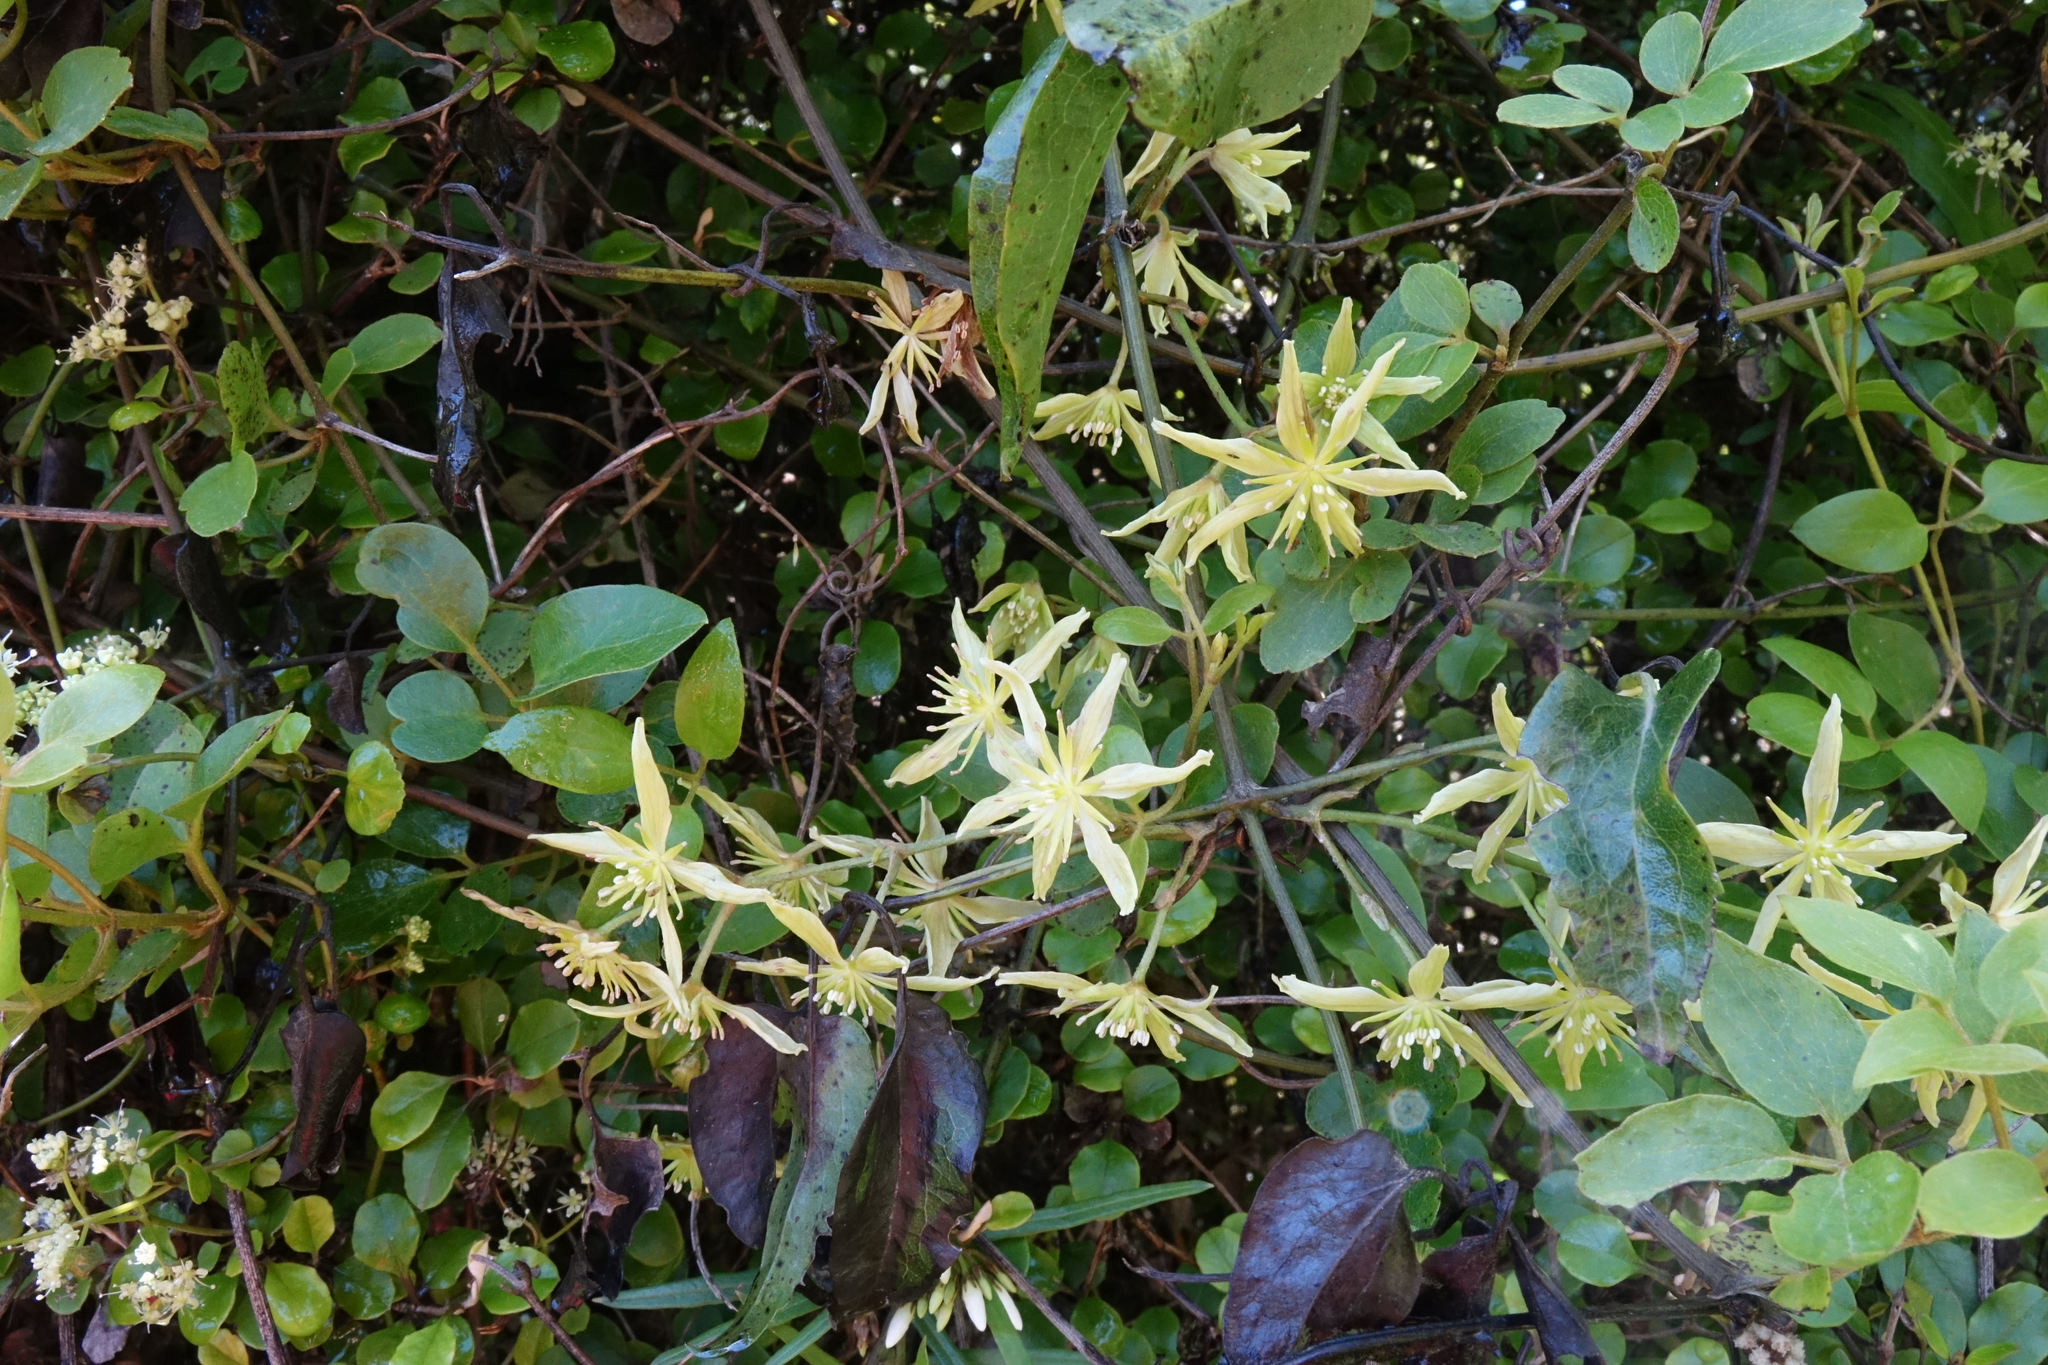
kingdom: Plantae
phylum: Tracheophyta
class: Magnoliopsida
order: Ranunculales
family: Ranunculaceae
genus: Clematis
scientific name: Clematis foetida
